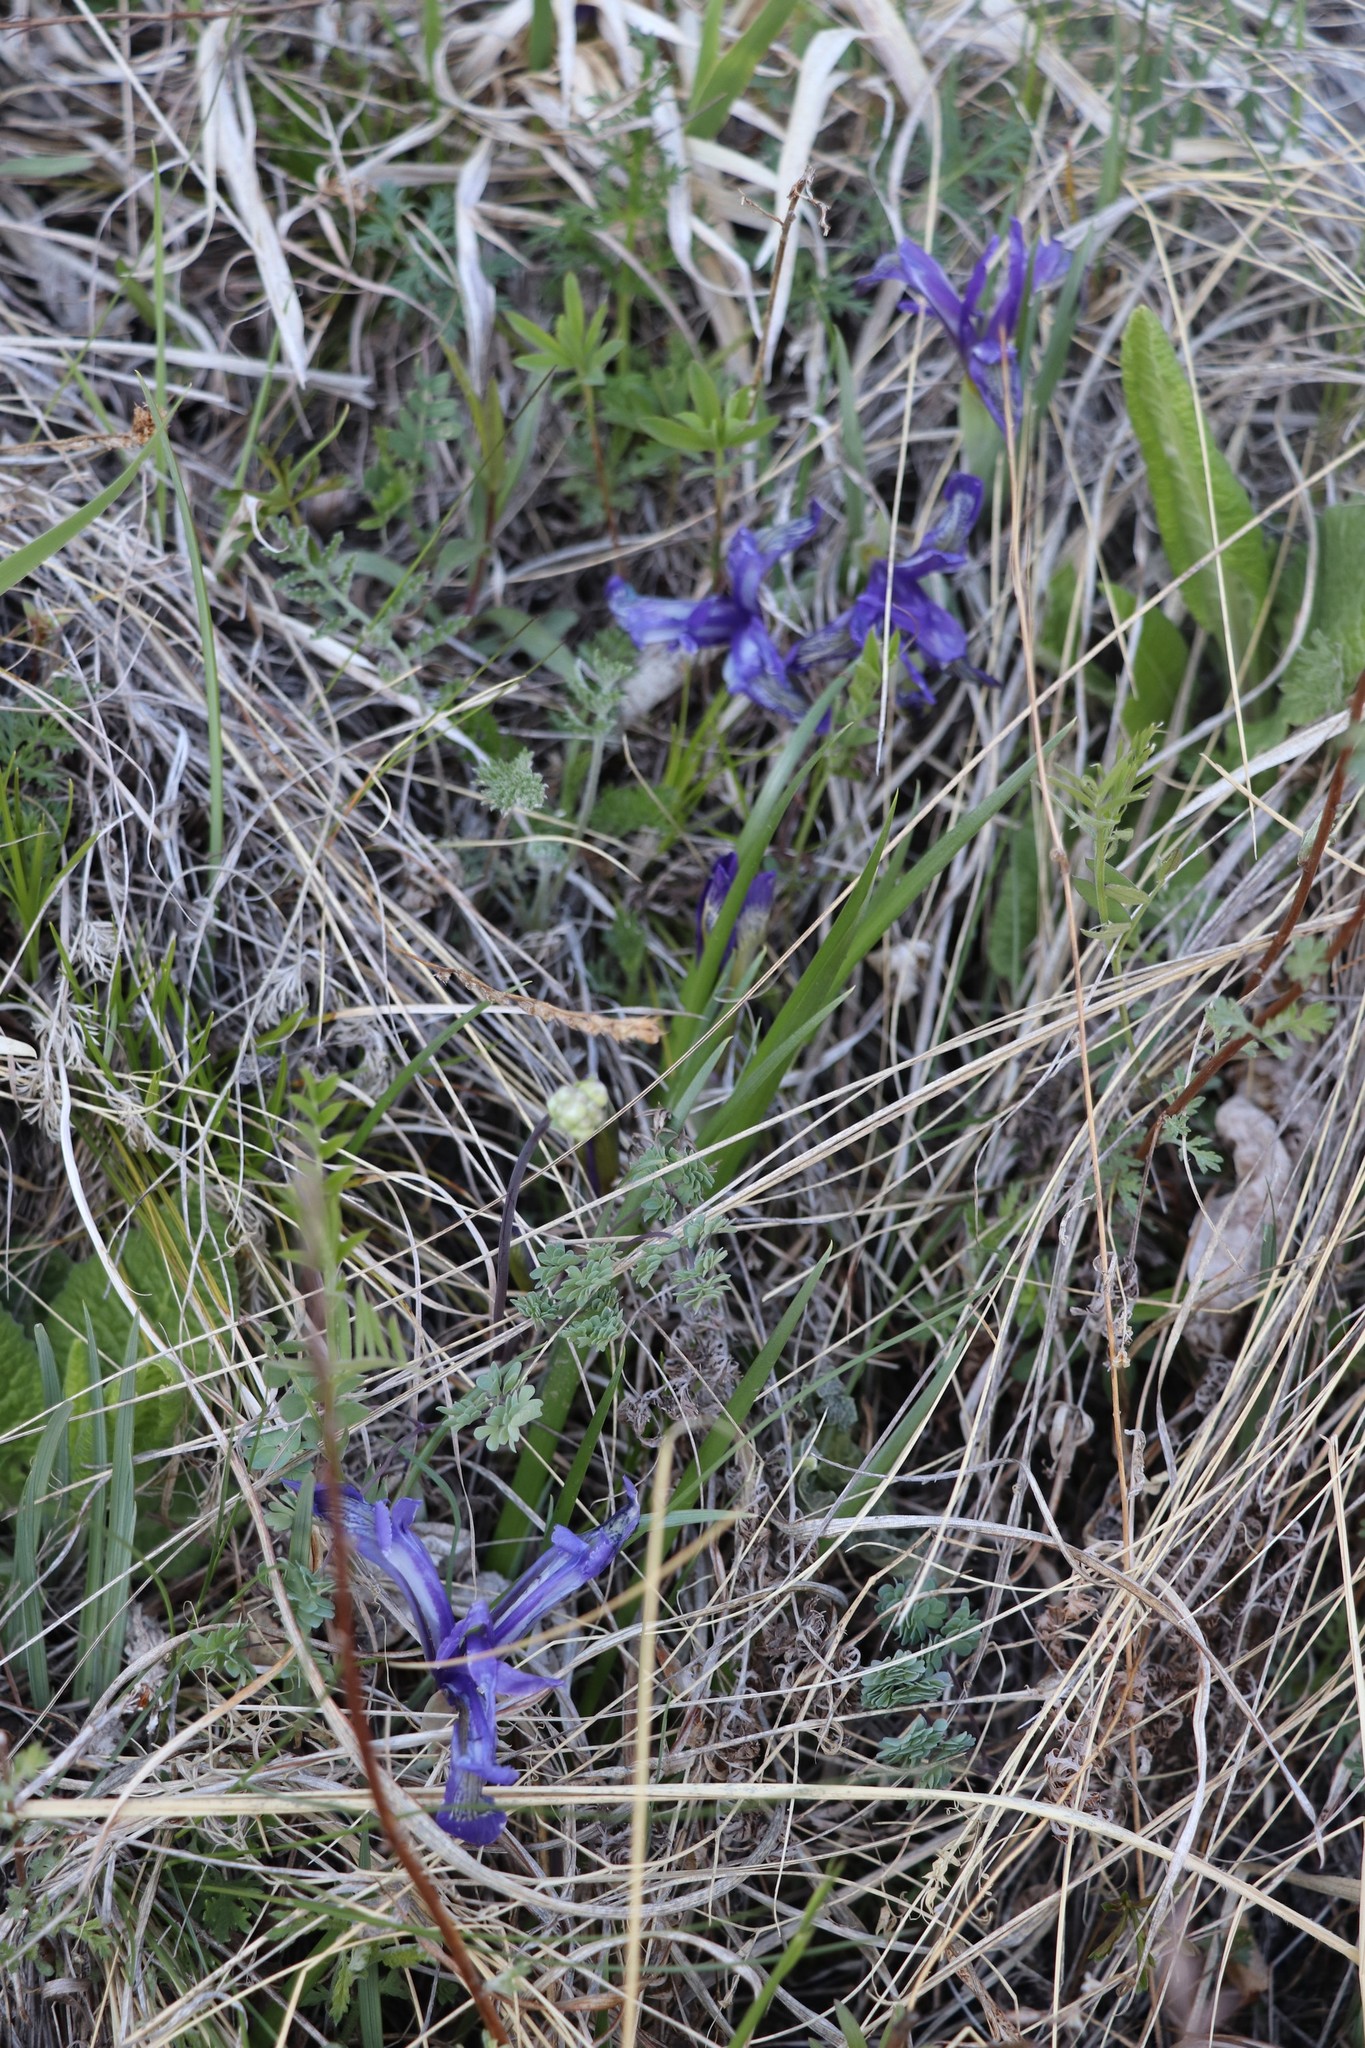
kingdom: Plantae
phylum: Tracheophyta
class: Liliopsida
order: Asparagales
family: Iridaceae
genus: Iris
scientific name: Iris ruthenica
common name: Purple-bract iris
